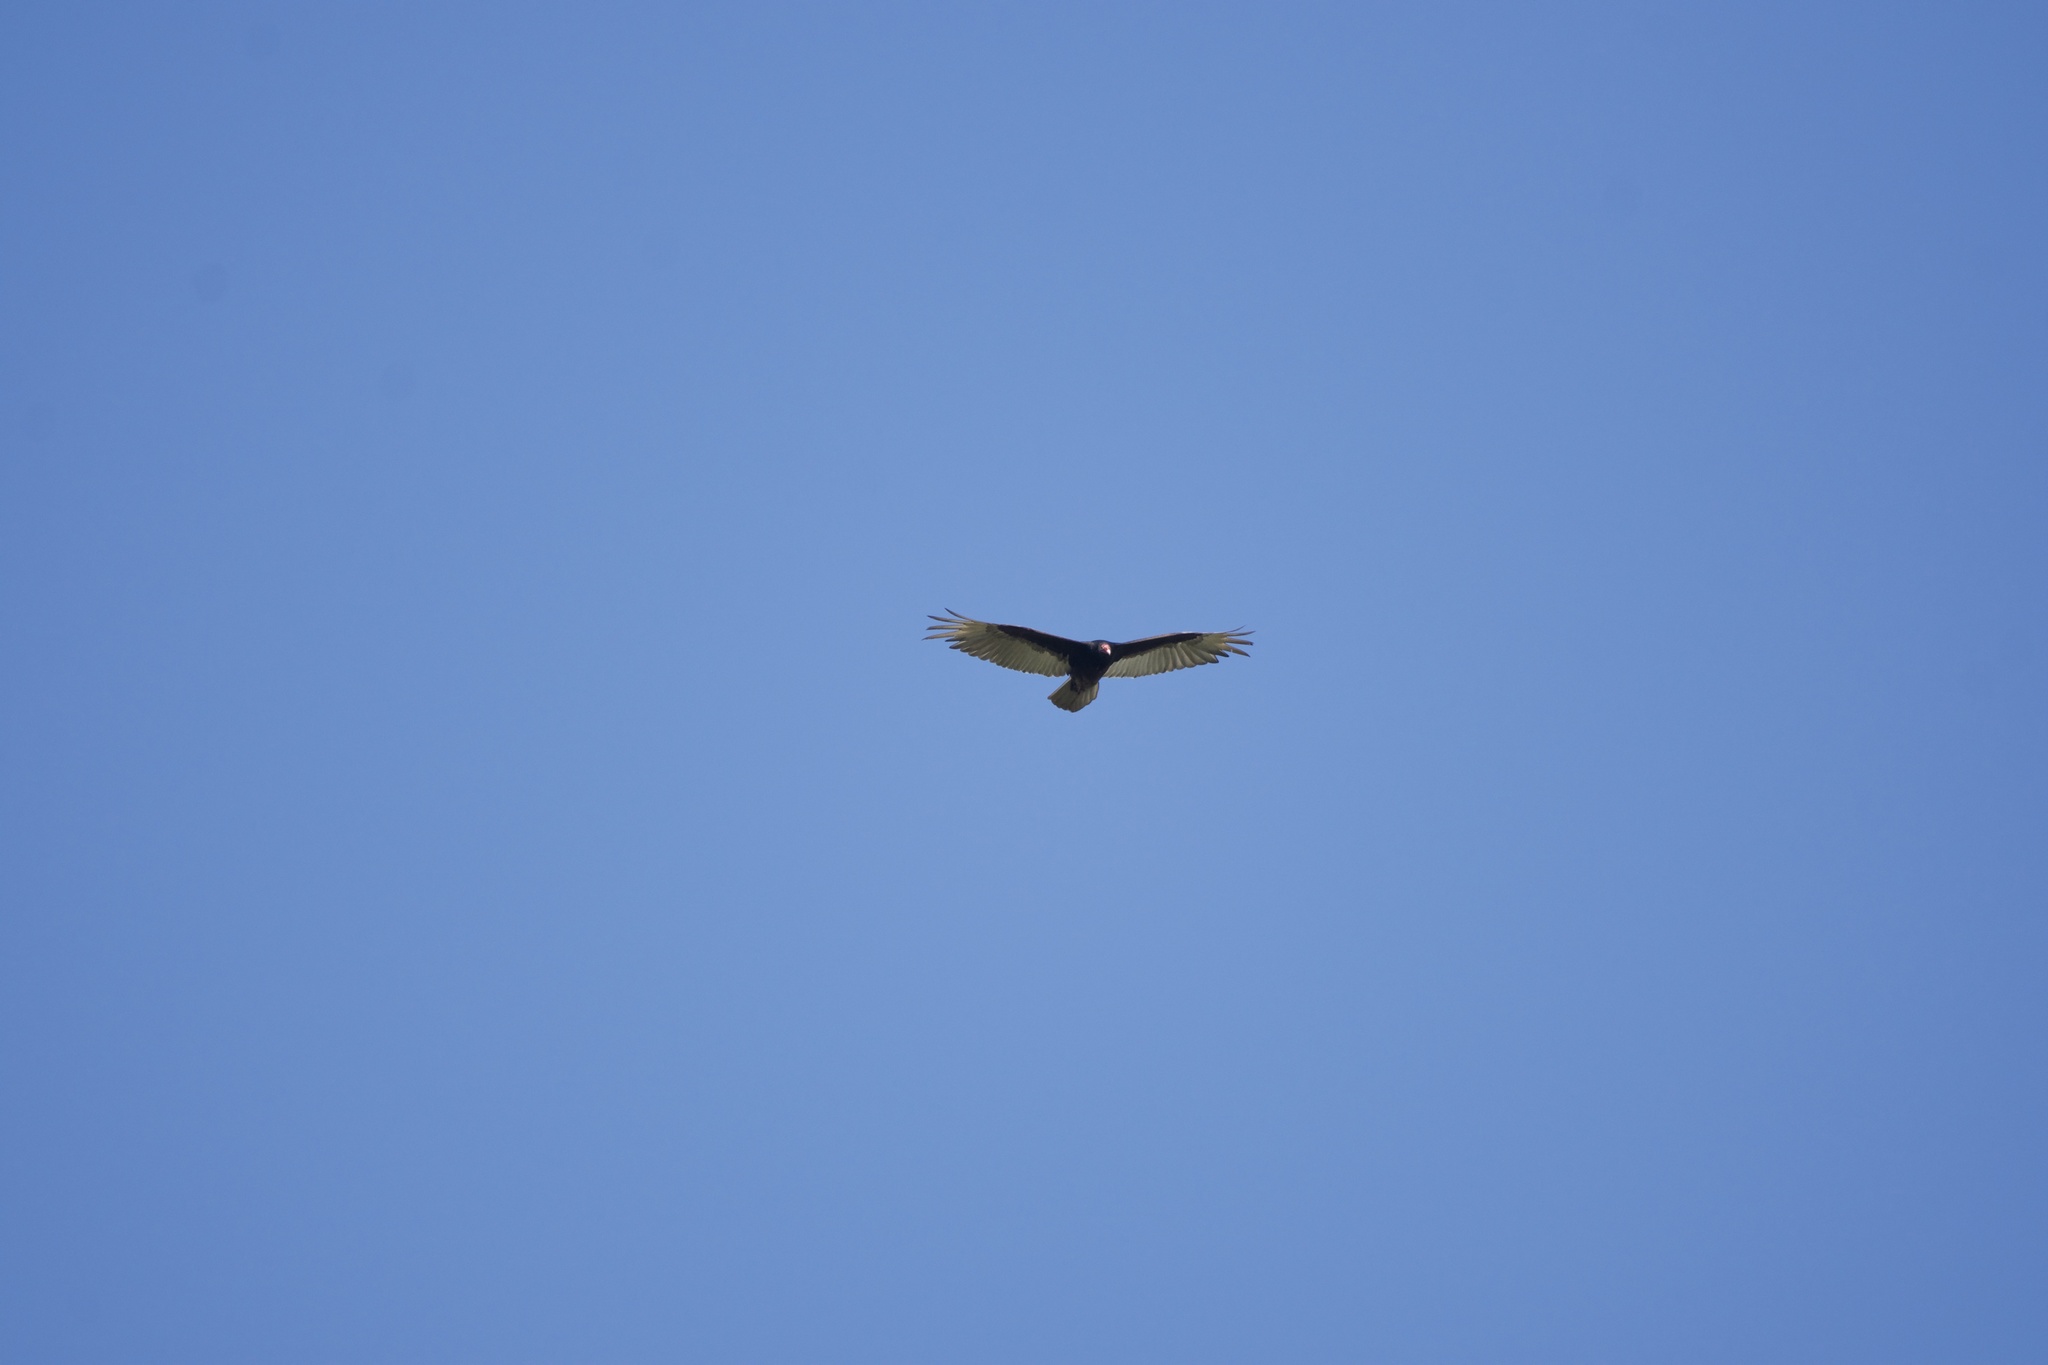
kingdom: Animalia
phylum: Chordata
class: Aves
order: Accipitriformes
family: Cathartidae
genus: Cathartes
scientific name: Cathartes aura
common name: Turkey vulture
